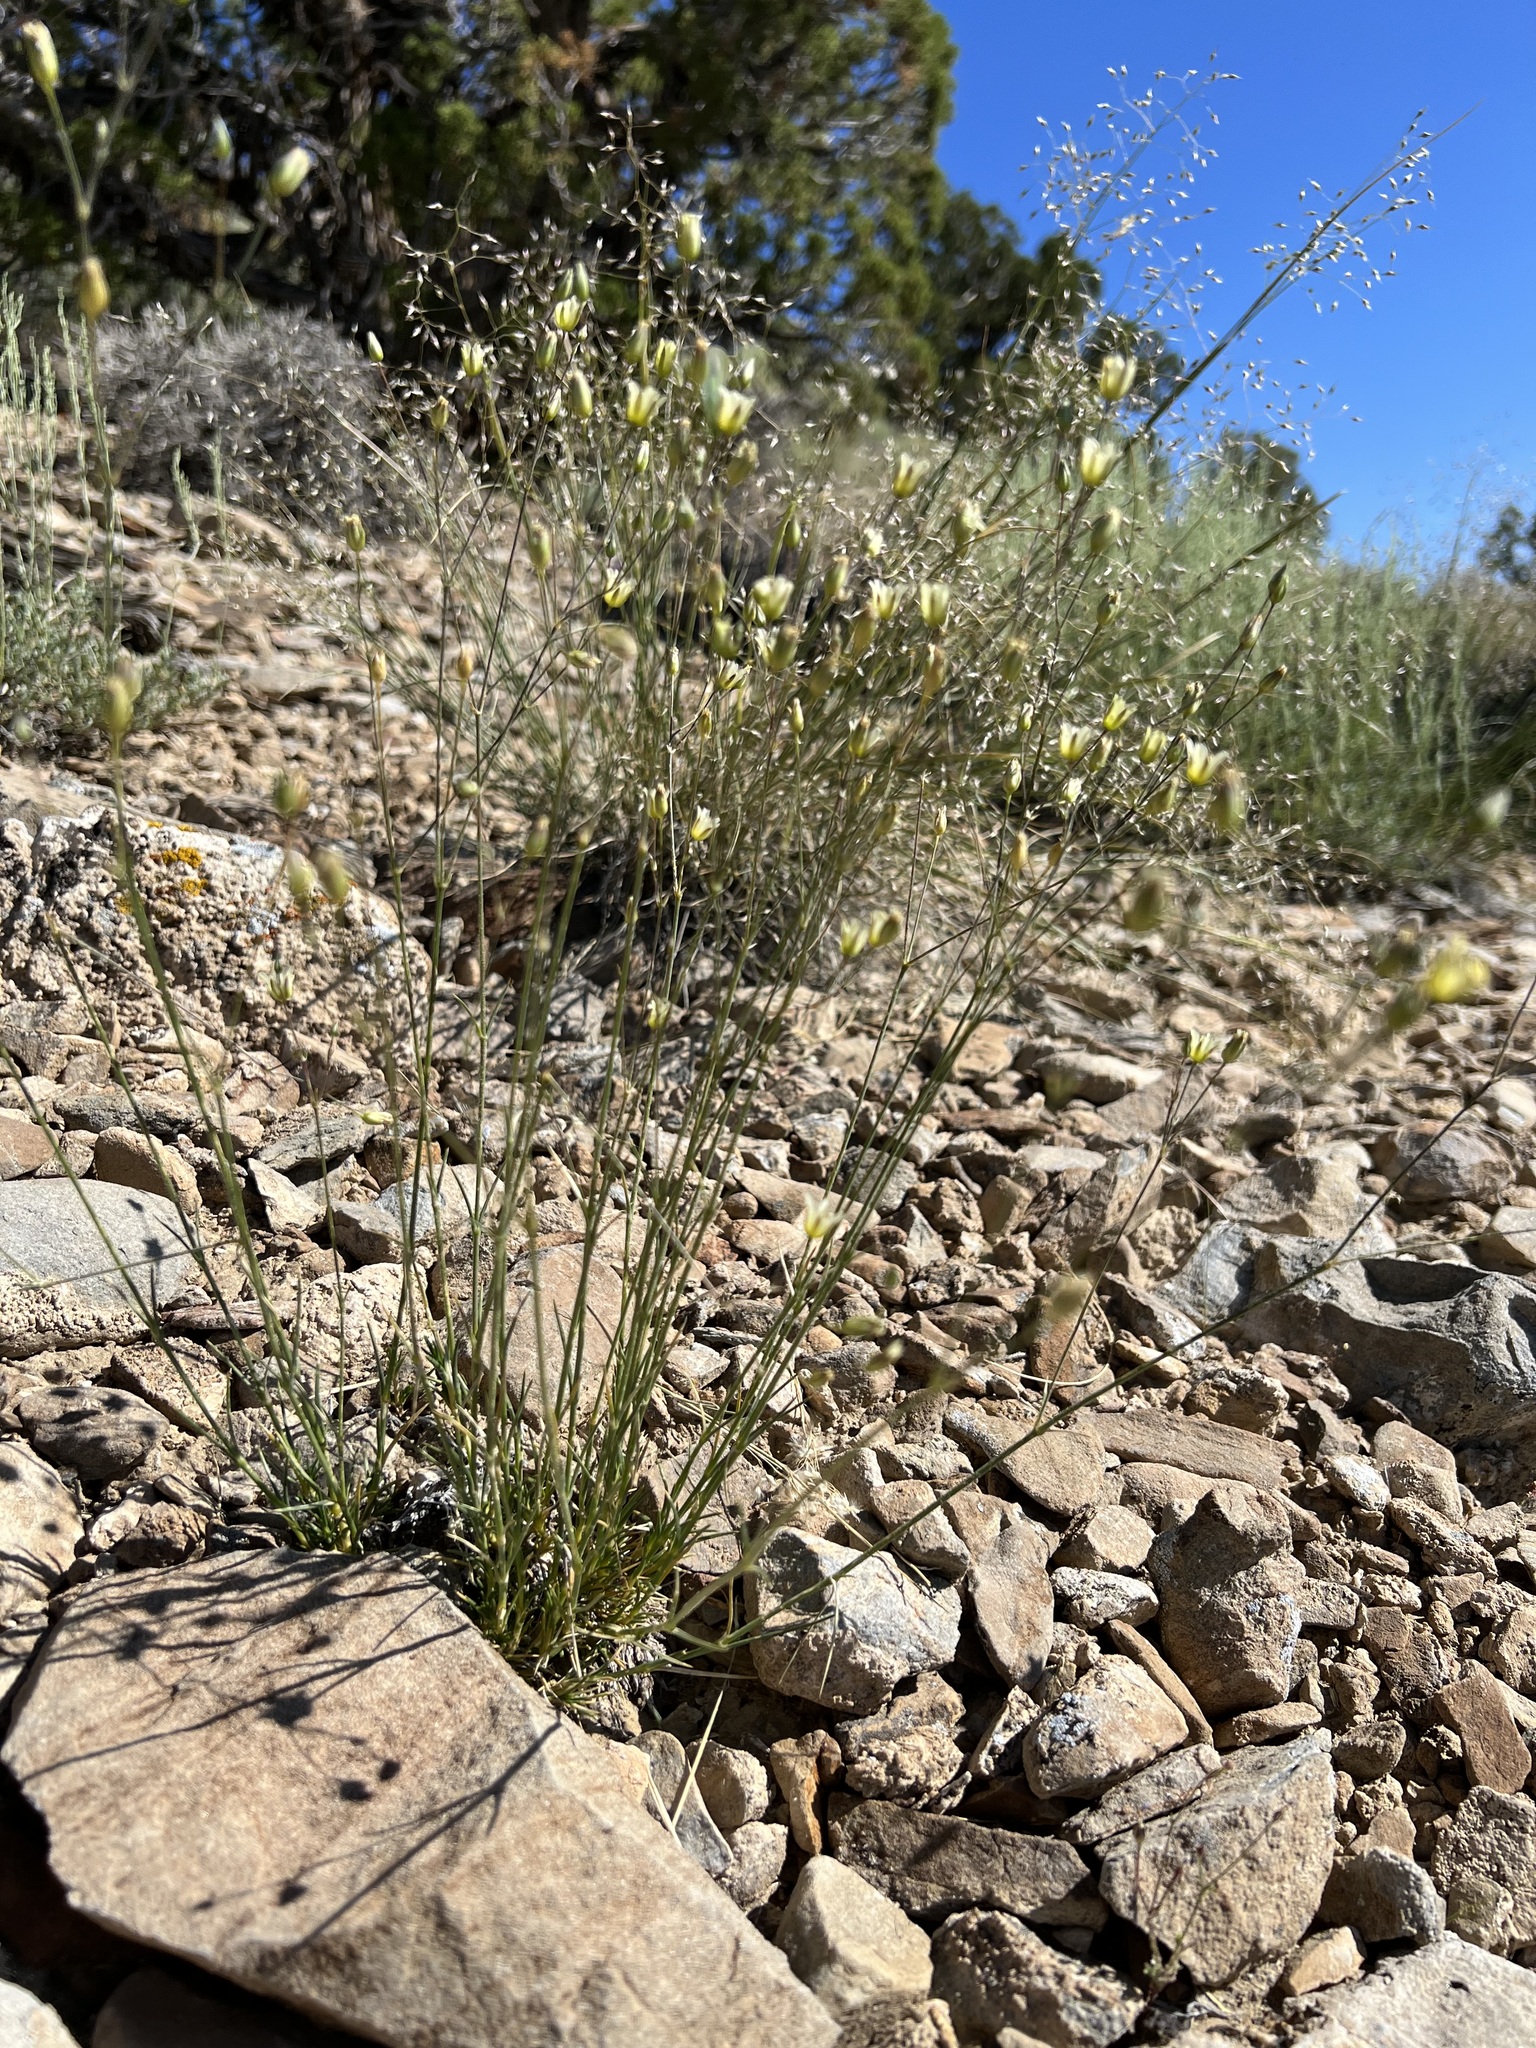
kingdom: Plantae
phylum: Tracheophyta
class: Magnoliopsida
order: Caryophyllales
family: Caryophyllaceae
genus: Eremogone
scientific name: Eremogone macradenia
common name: Mohave sandwort
